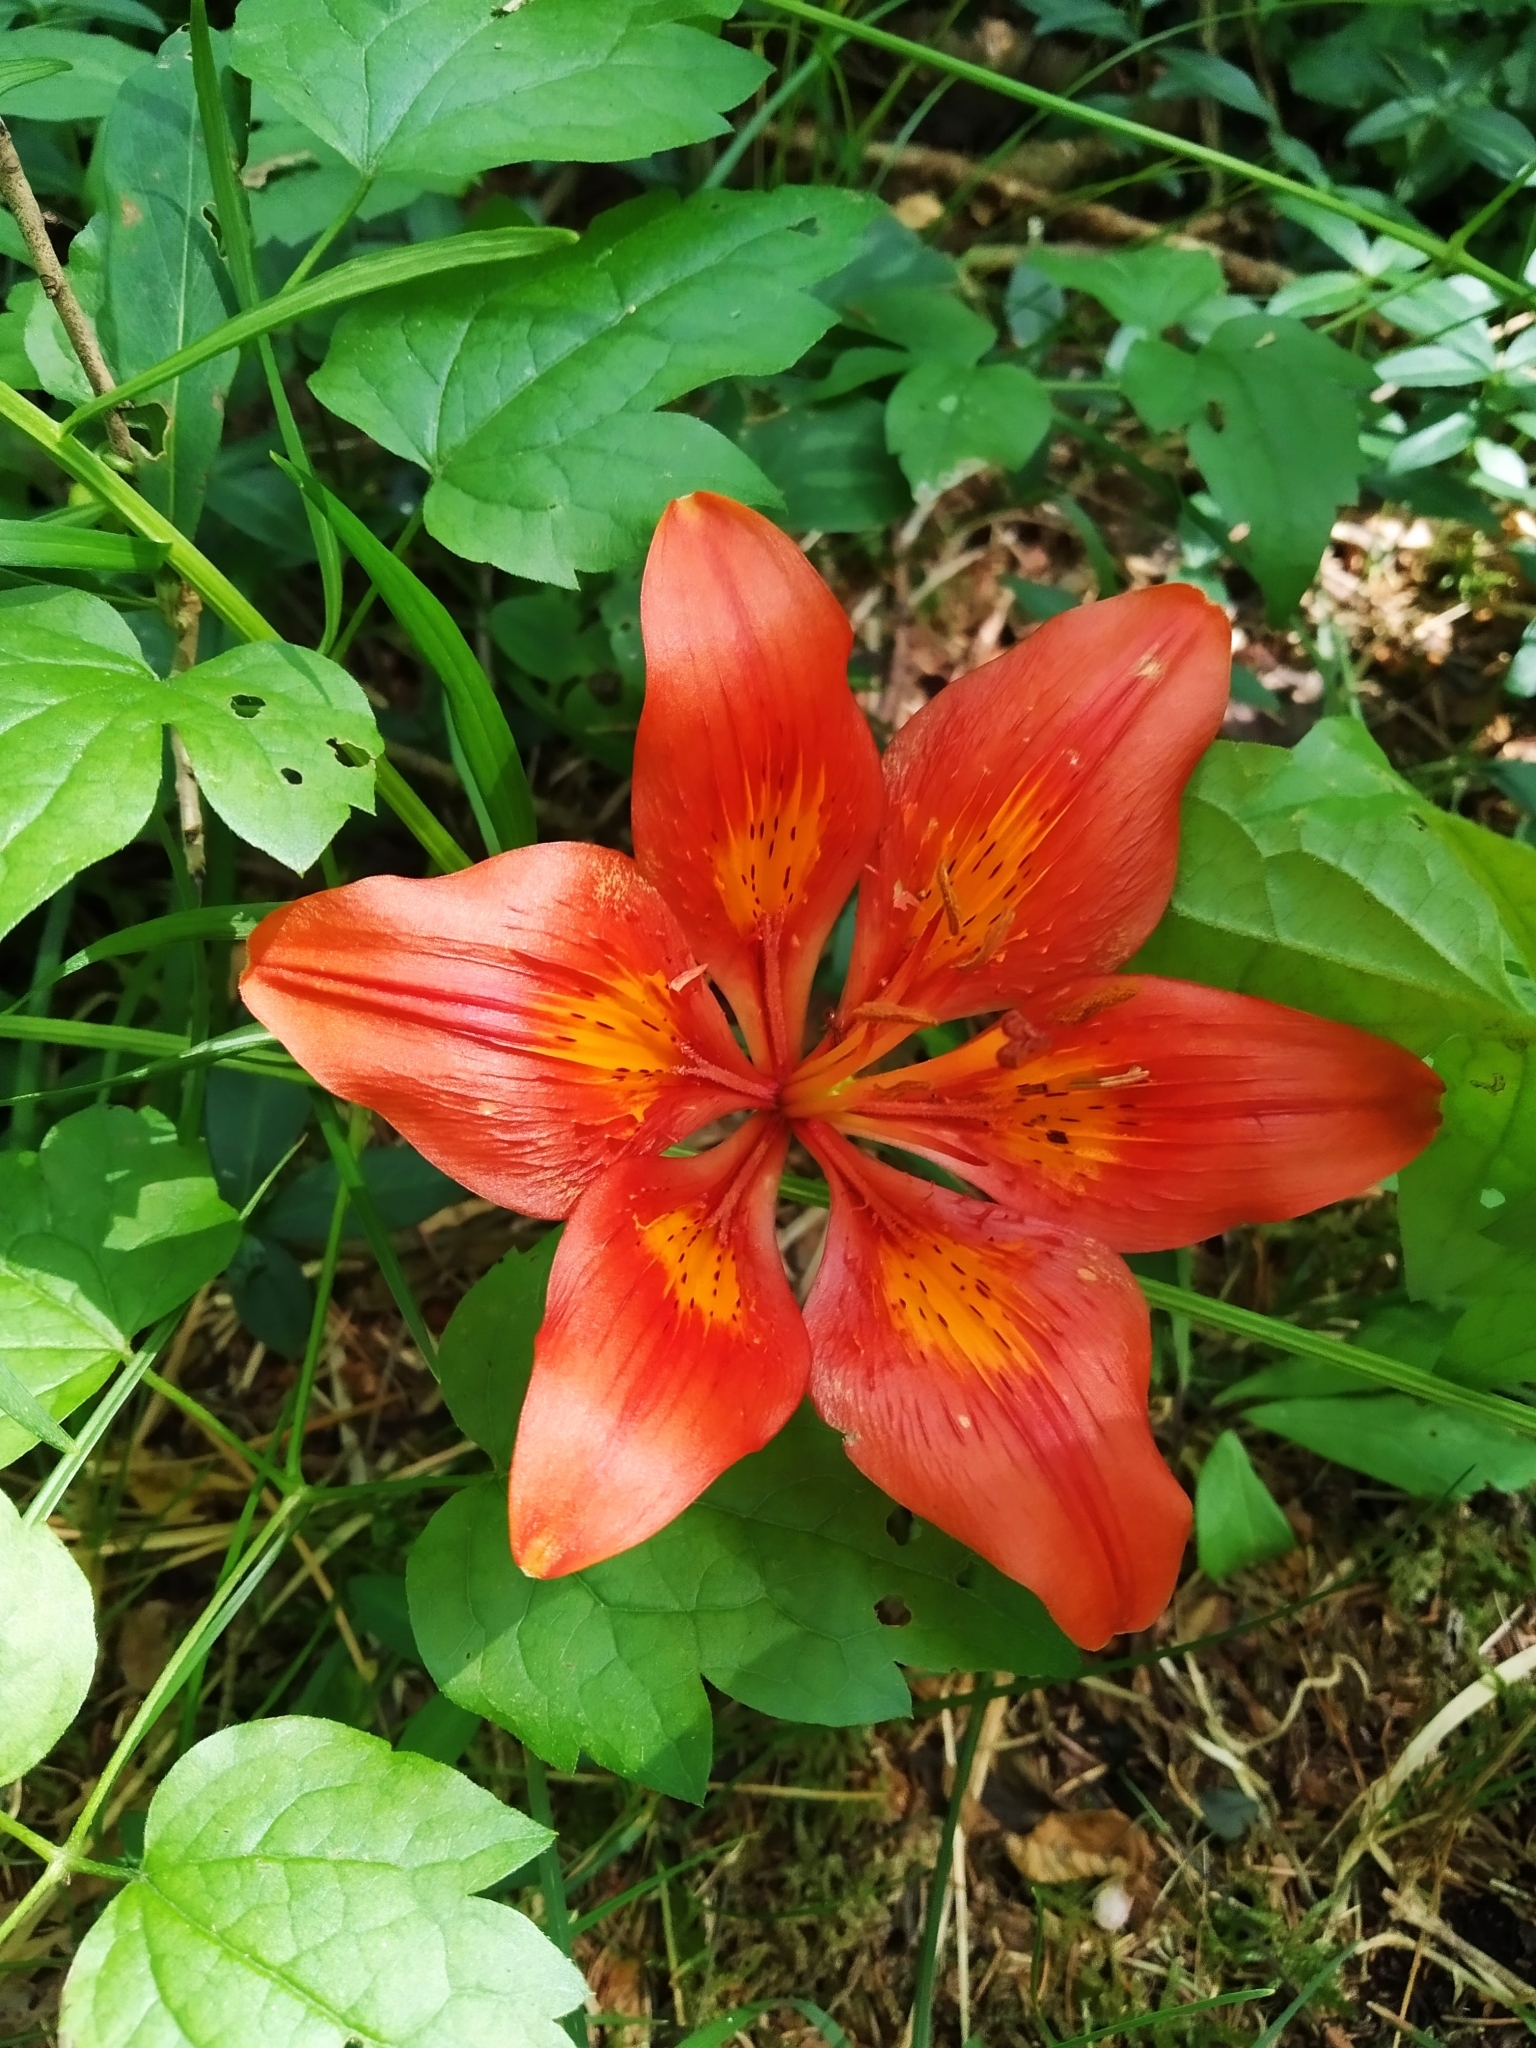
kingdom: Plantae
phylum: Tracheophyta
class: Liliopsida
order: Liliales
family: Liliaceae
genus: Lilium
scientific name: Lilium bulbiferum
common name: Orange lily
